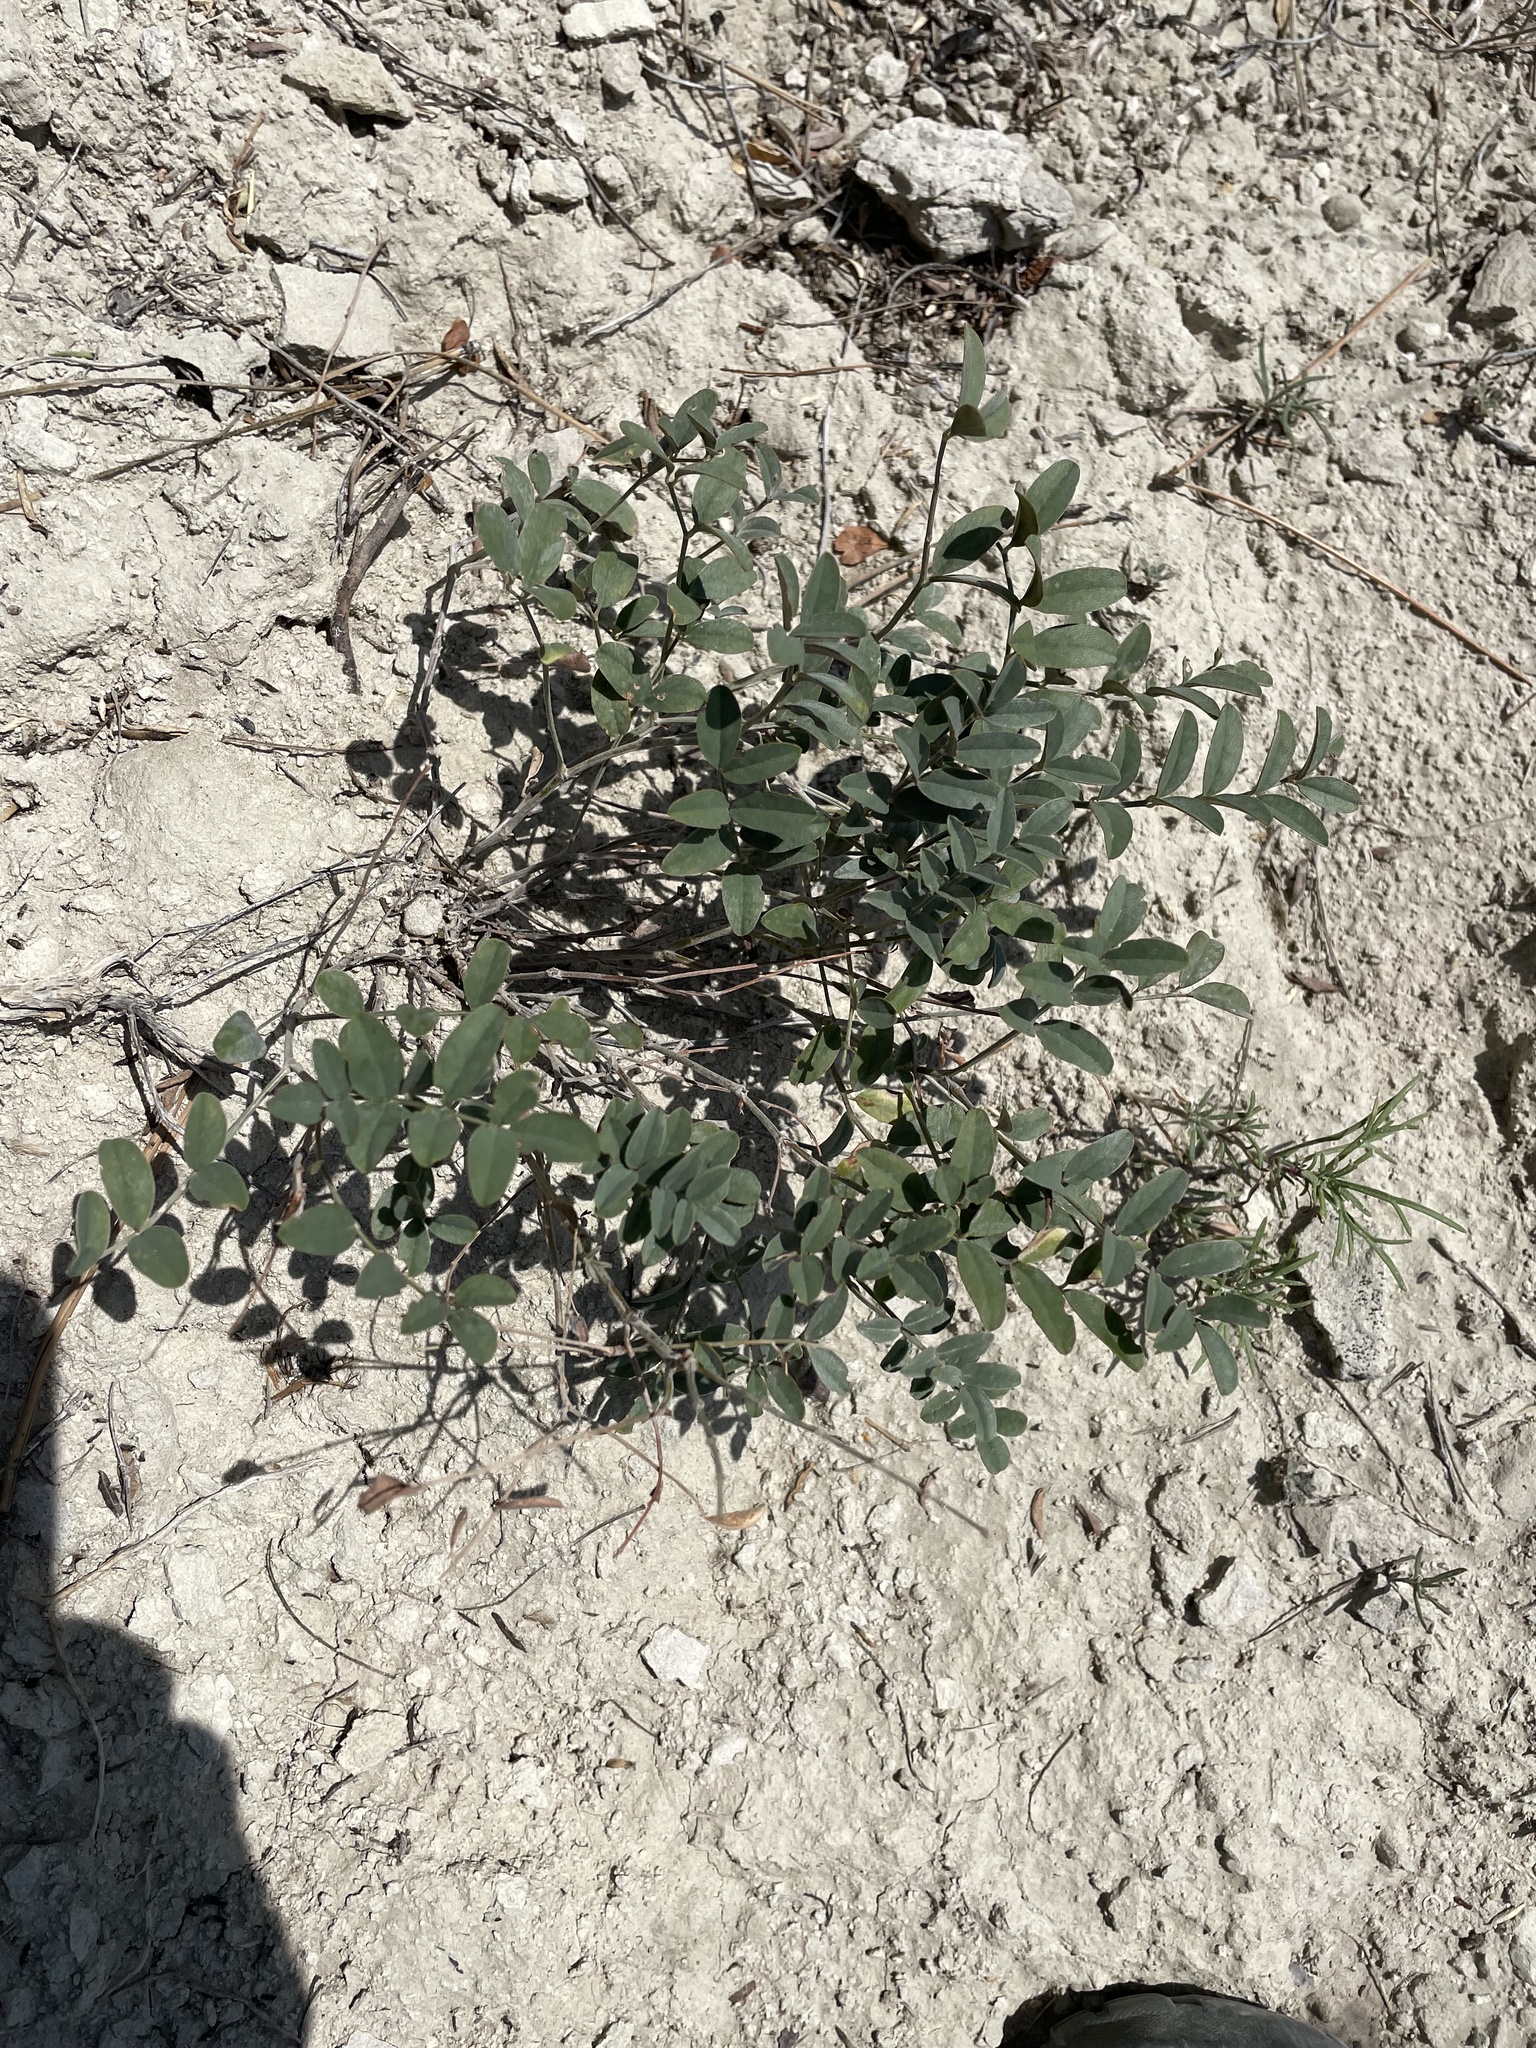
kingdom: Plantae
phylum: Tracheophyta
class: Magnoliopsida
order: Fabales
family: Fabaceae
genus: Hedysarum
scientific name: Hedysarum boreale
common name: Northern sweet-vetch
